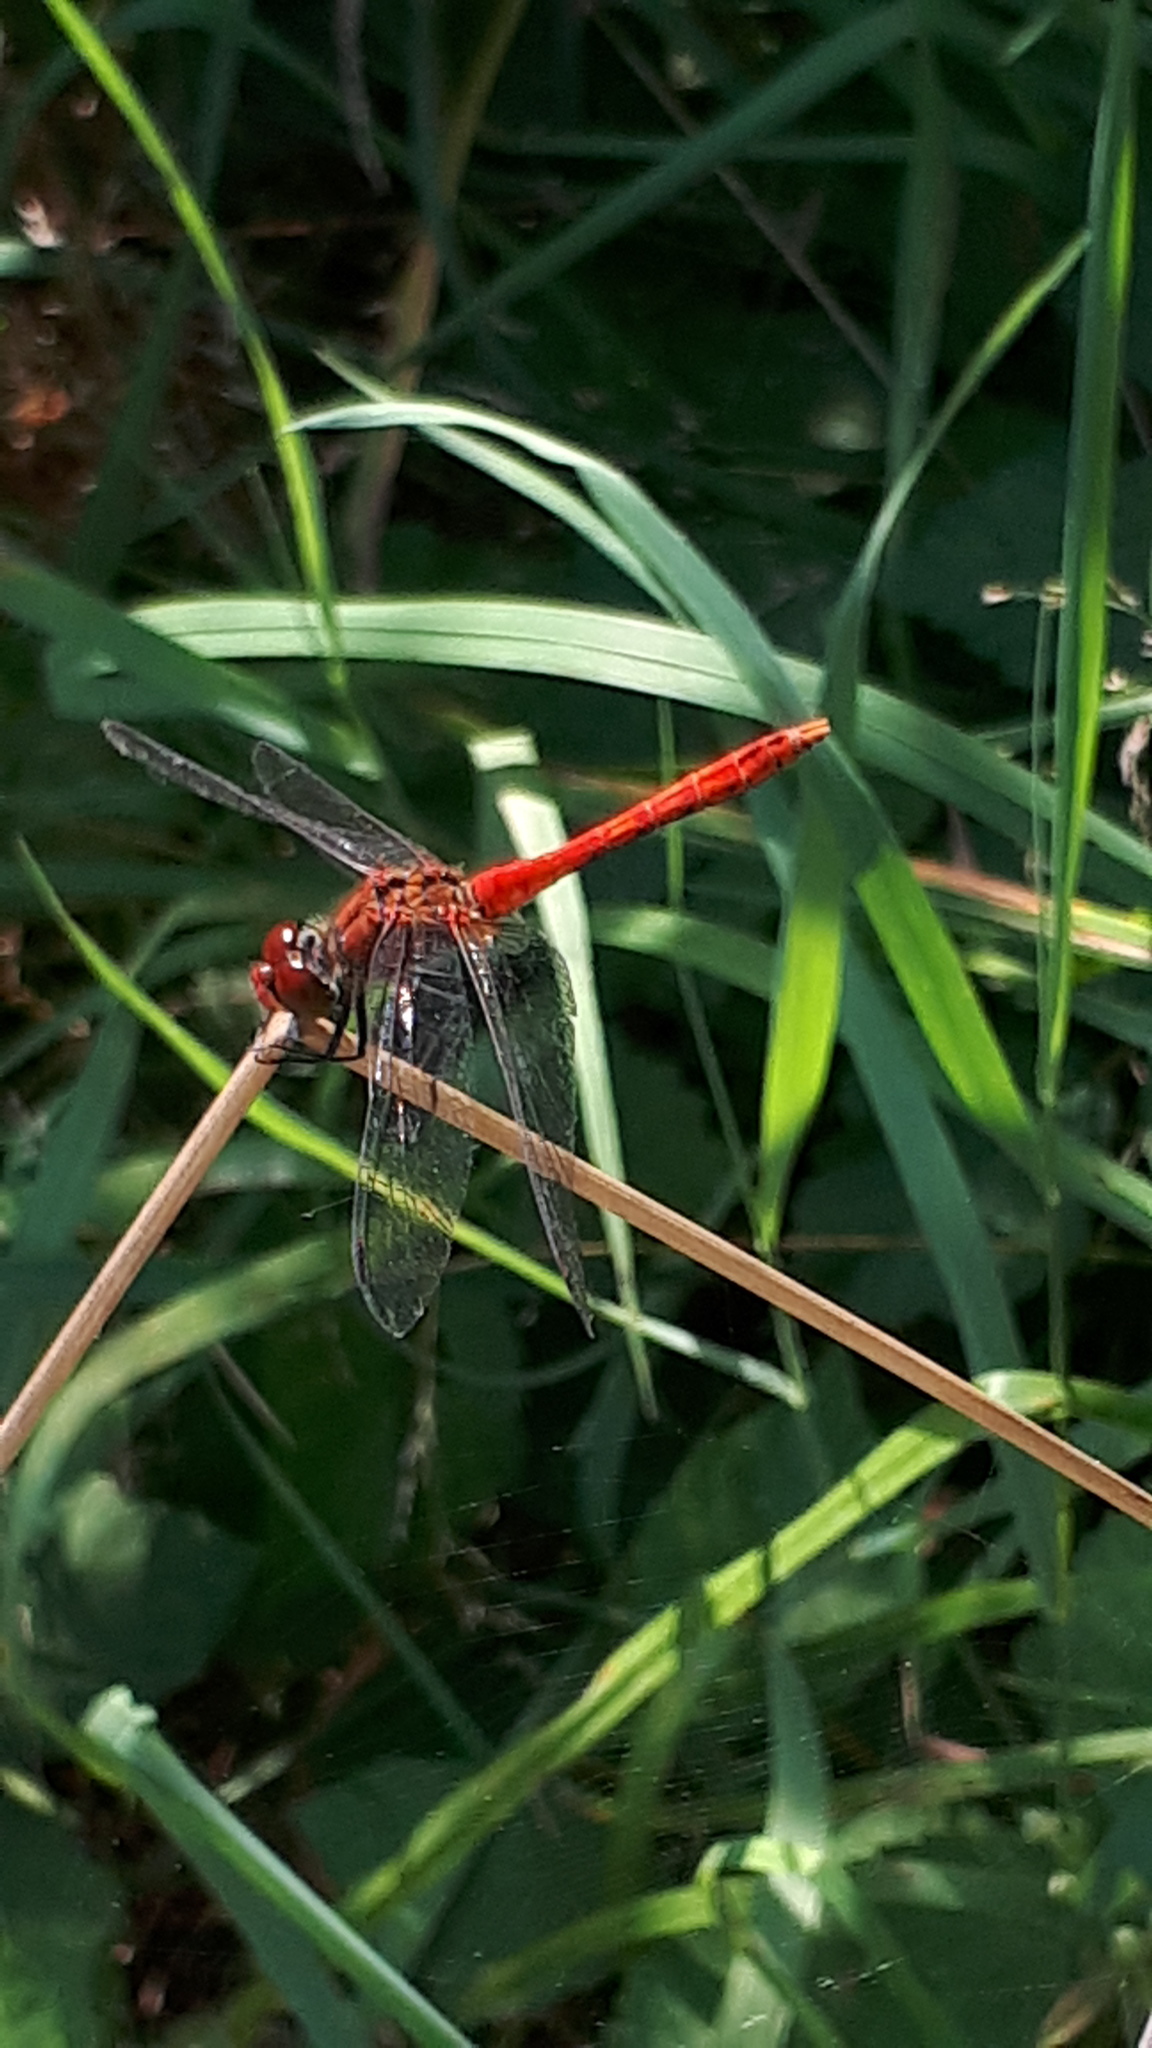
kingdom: Animalia
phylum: Arthropoda
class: Insecta
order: Odonata
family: Libellulidae
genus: Sympetrum
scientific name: Sympetrum sanguineum
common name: Ruddy darter
